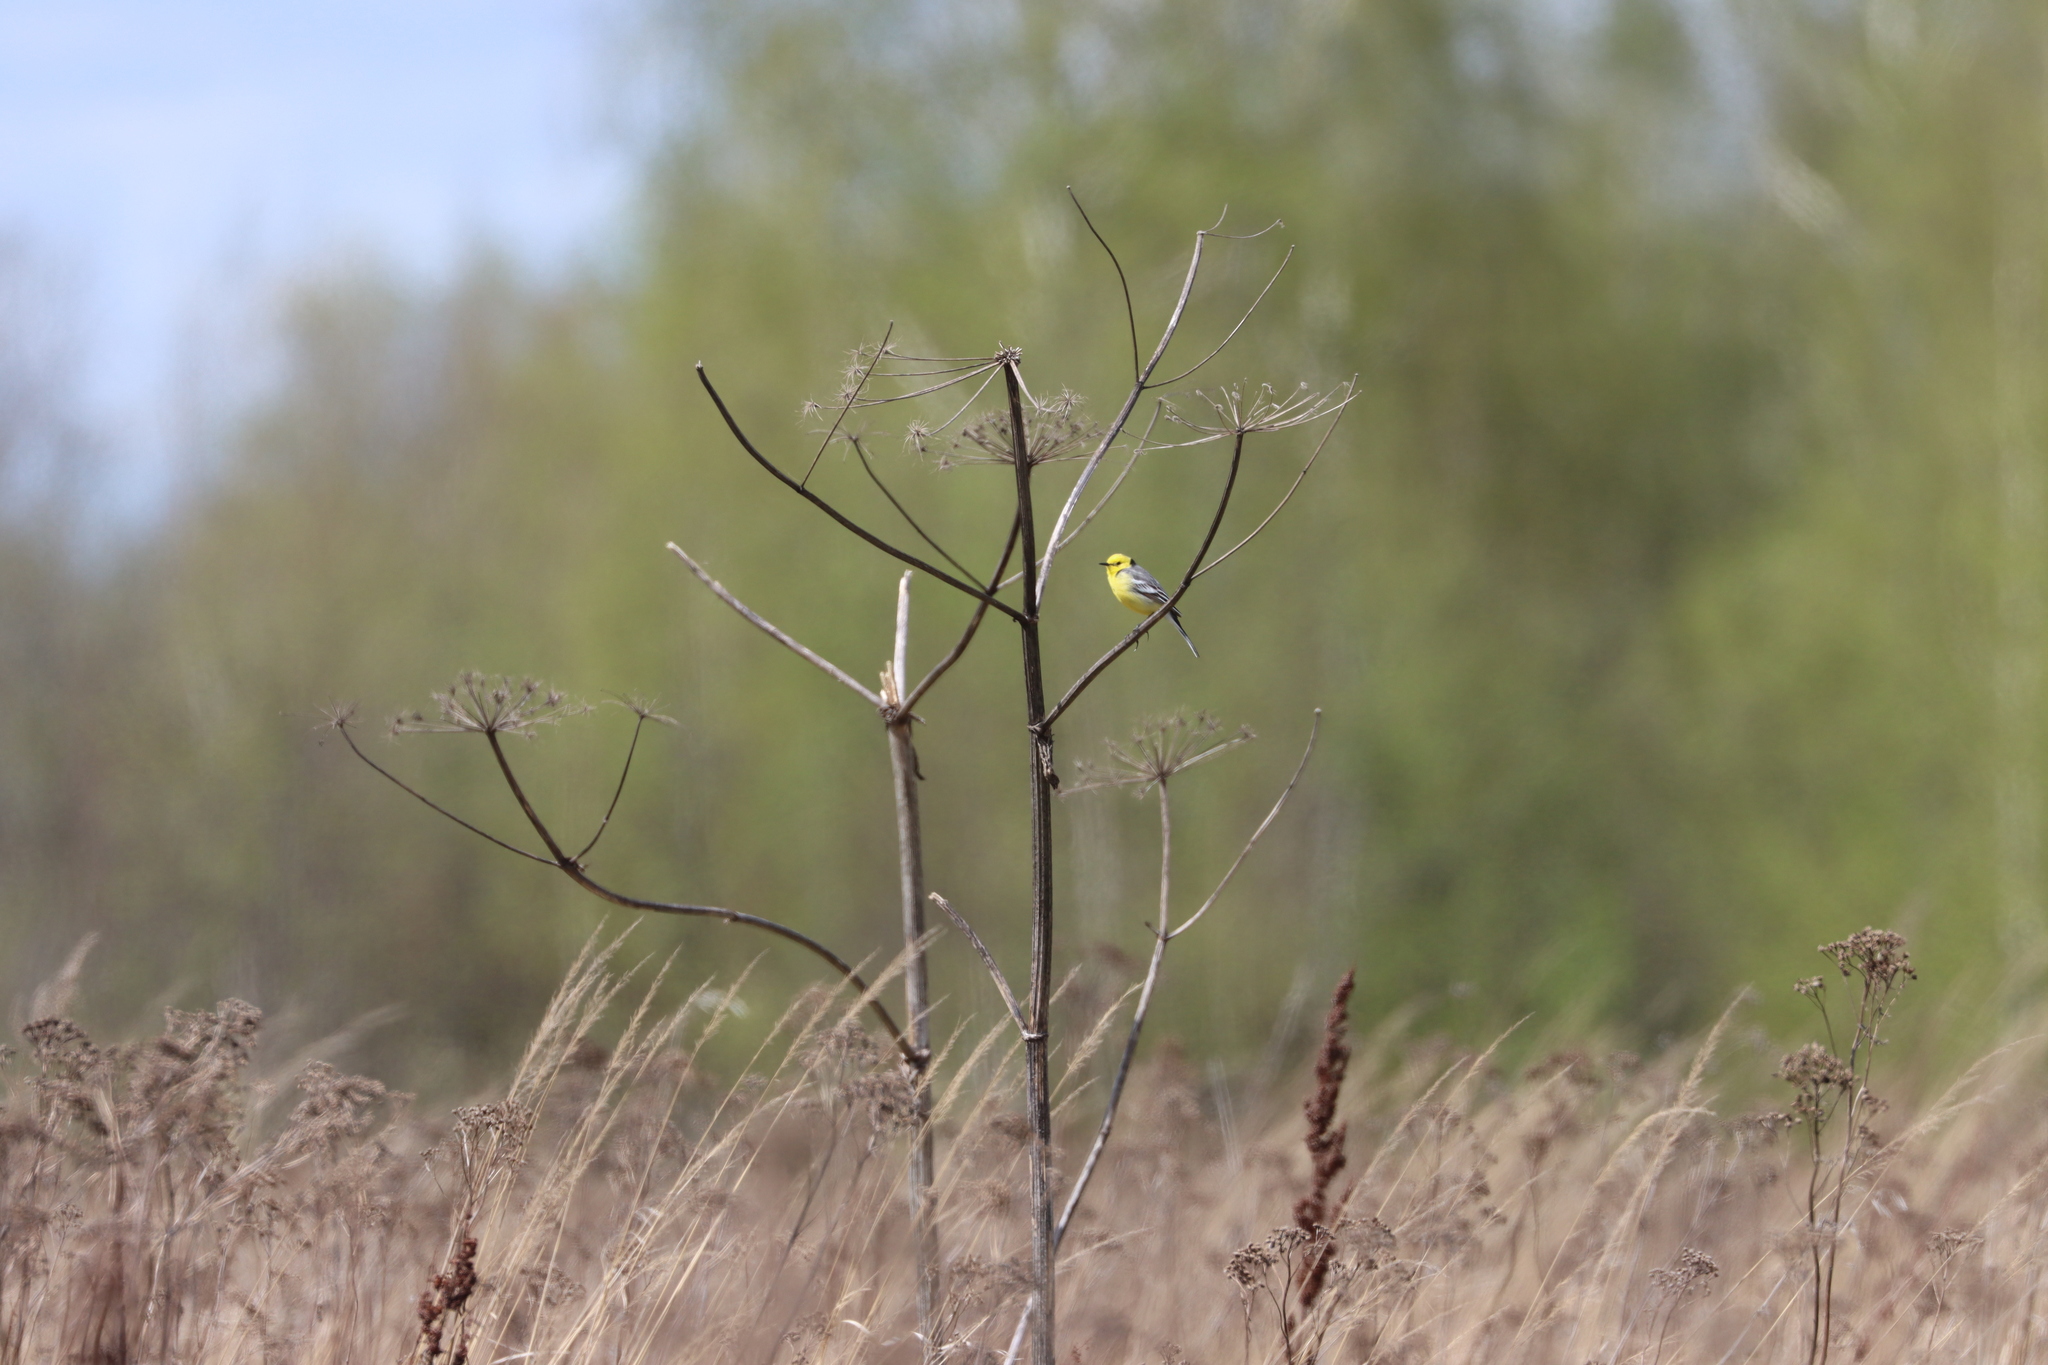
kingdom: Animalia
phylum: Chordata
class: Aves
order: Passeriformes
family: Motacillidae
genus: Motacilla
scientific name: Motacilla citreola
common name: Citrine wagtail
